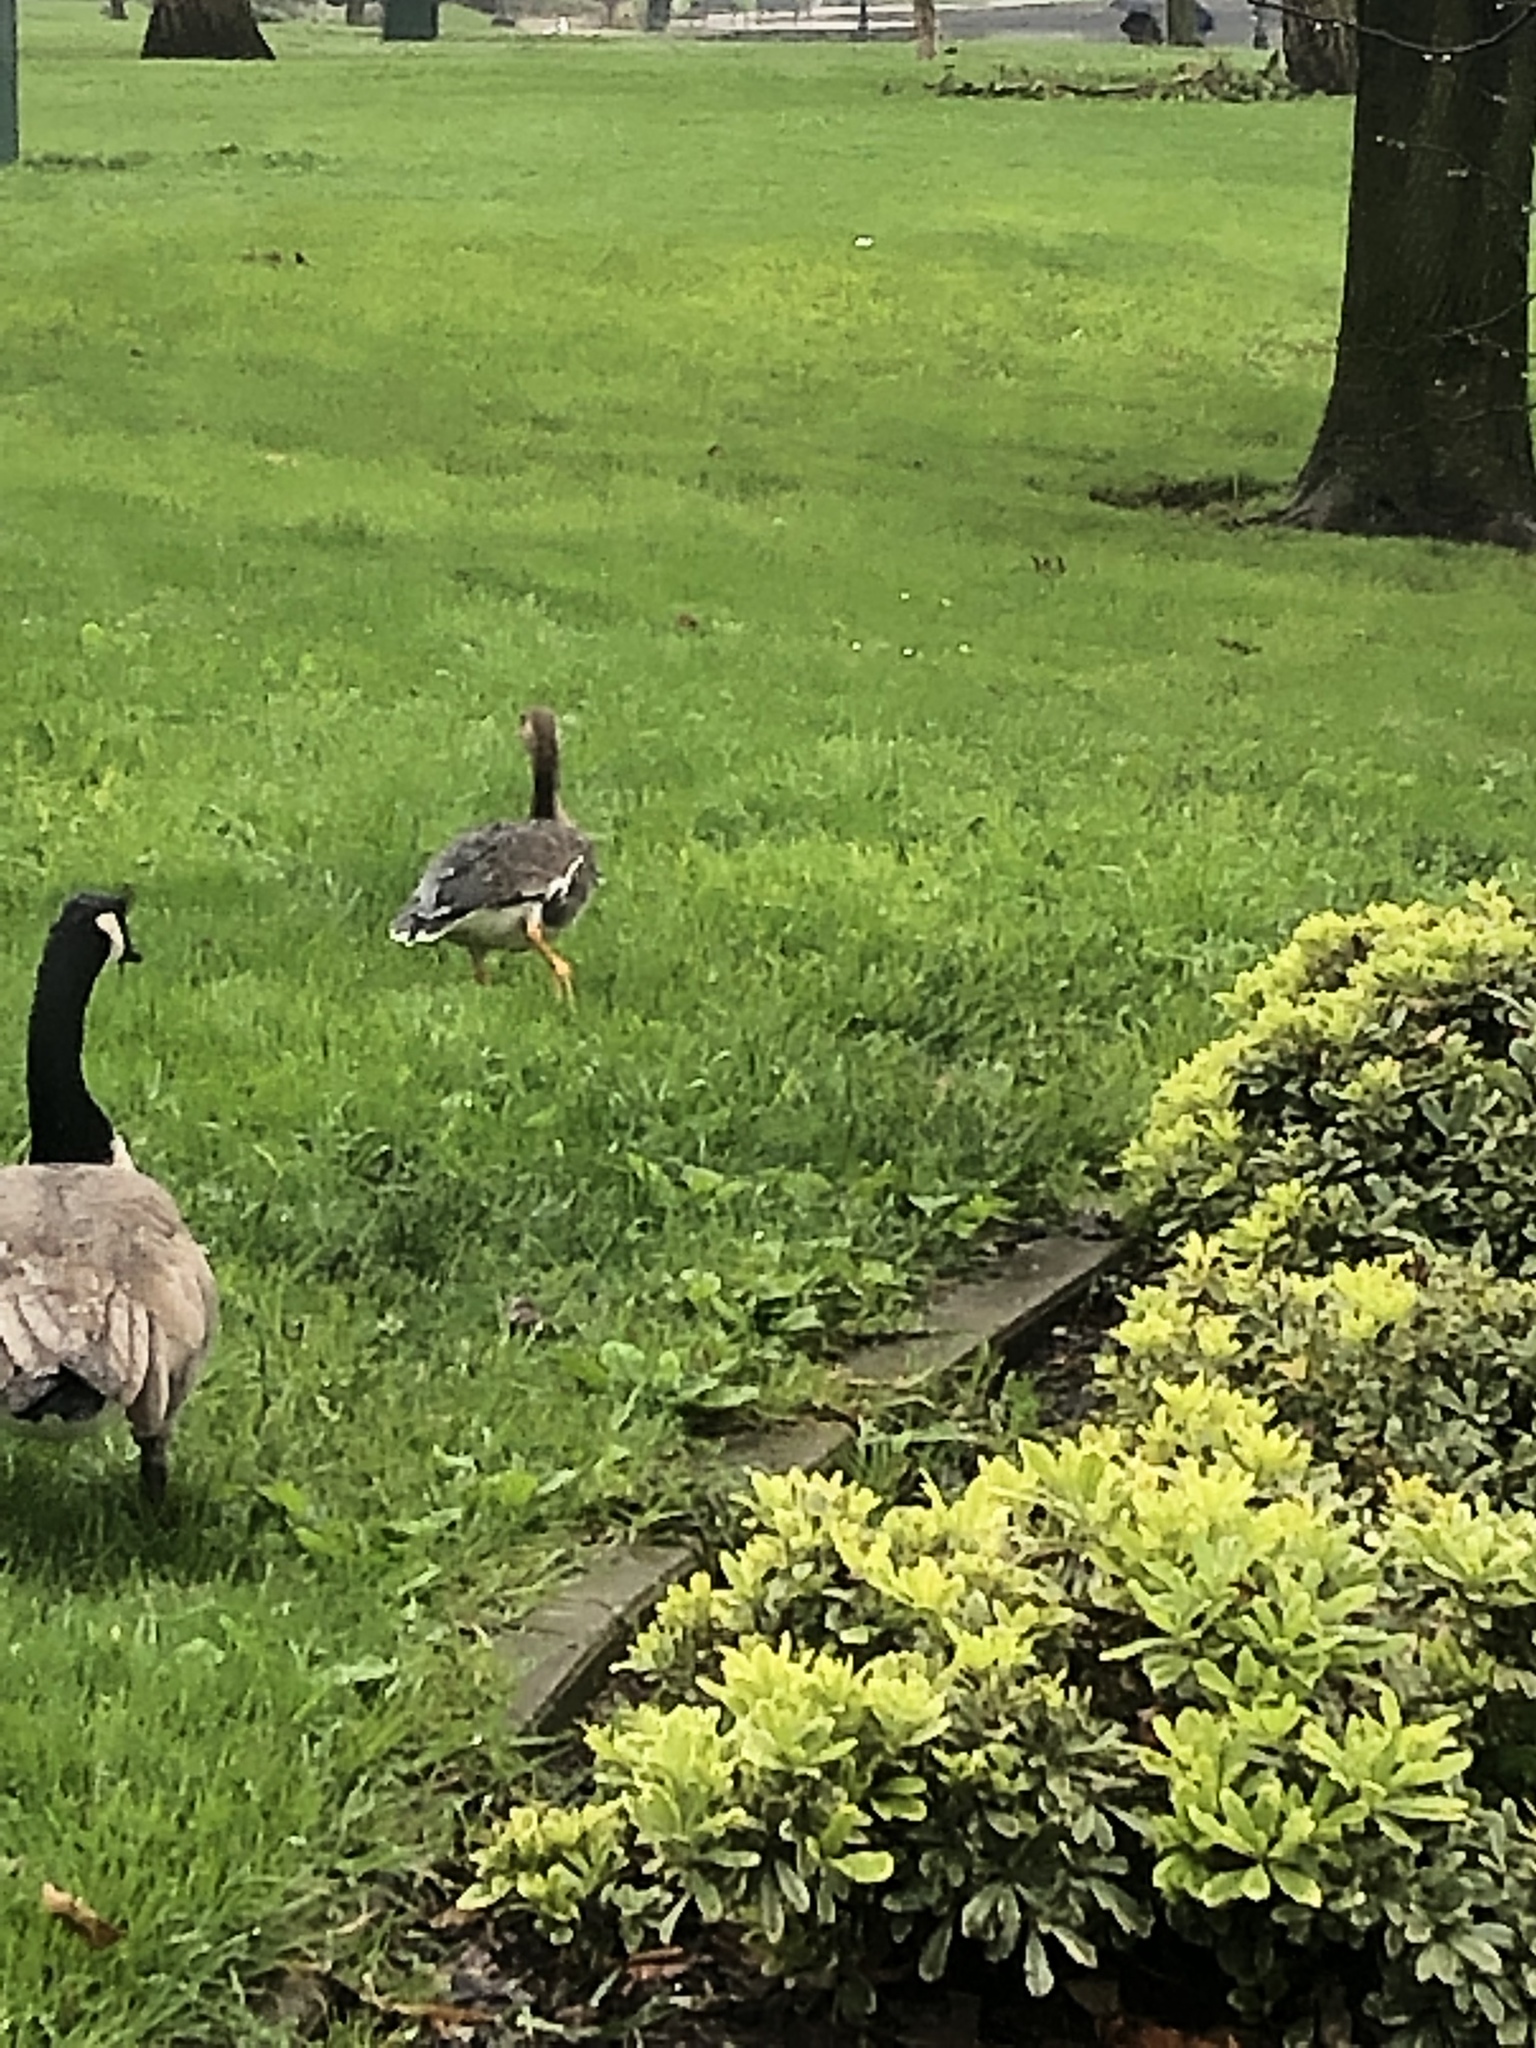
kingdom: Animalia
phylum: Chordata
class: Aves
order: Anseriformes
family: Anatidae
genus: Anser
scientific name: Anser albifrons
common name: Greater white-fronted goose
